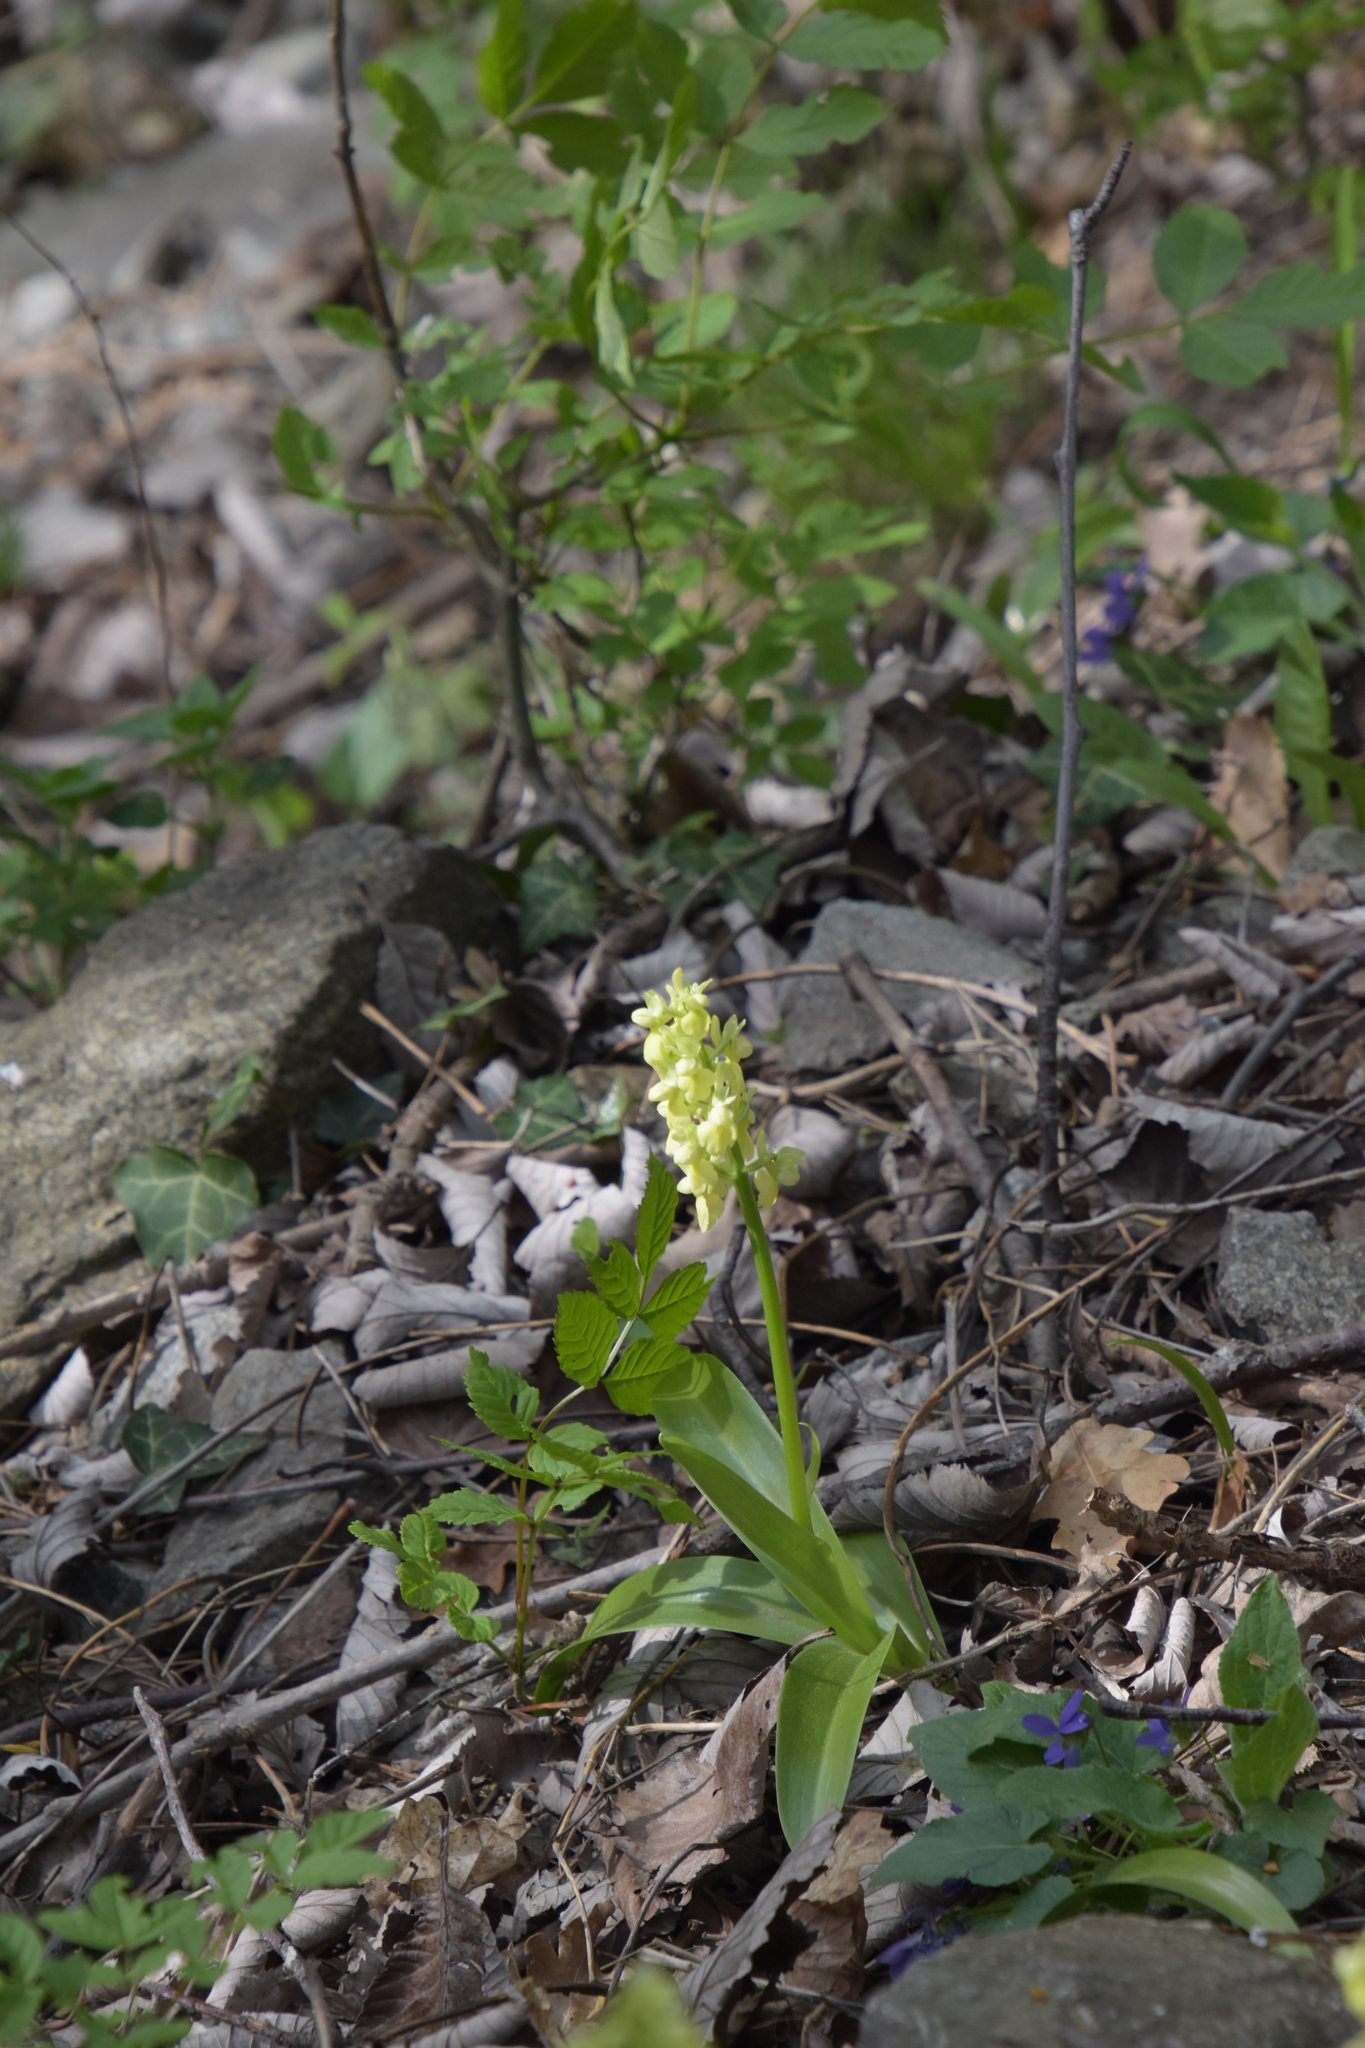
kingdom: Plantae
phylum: Tracheophyta
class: Liliopsida
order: Asparagales
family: Orchidaceae
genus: Orchis
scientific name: Orchis pallens
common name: Pale-flowered orchid
